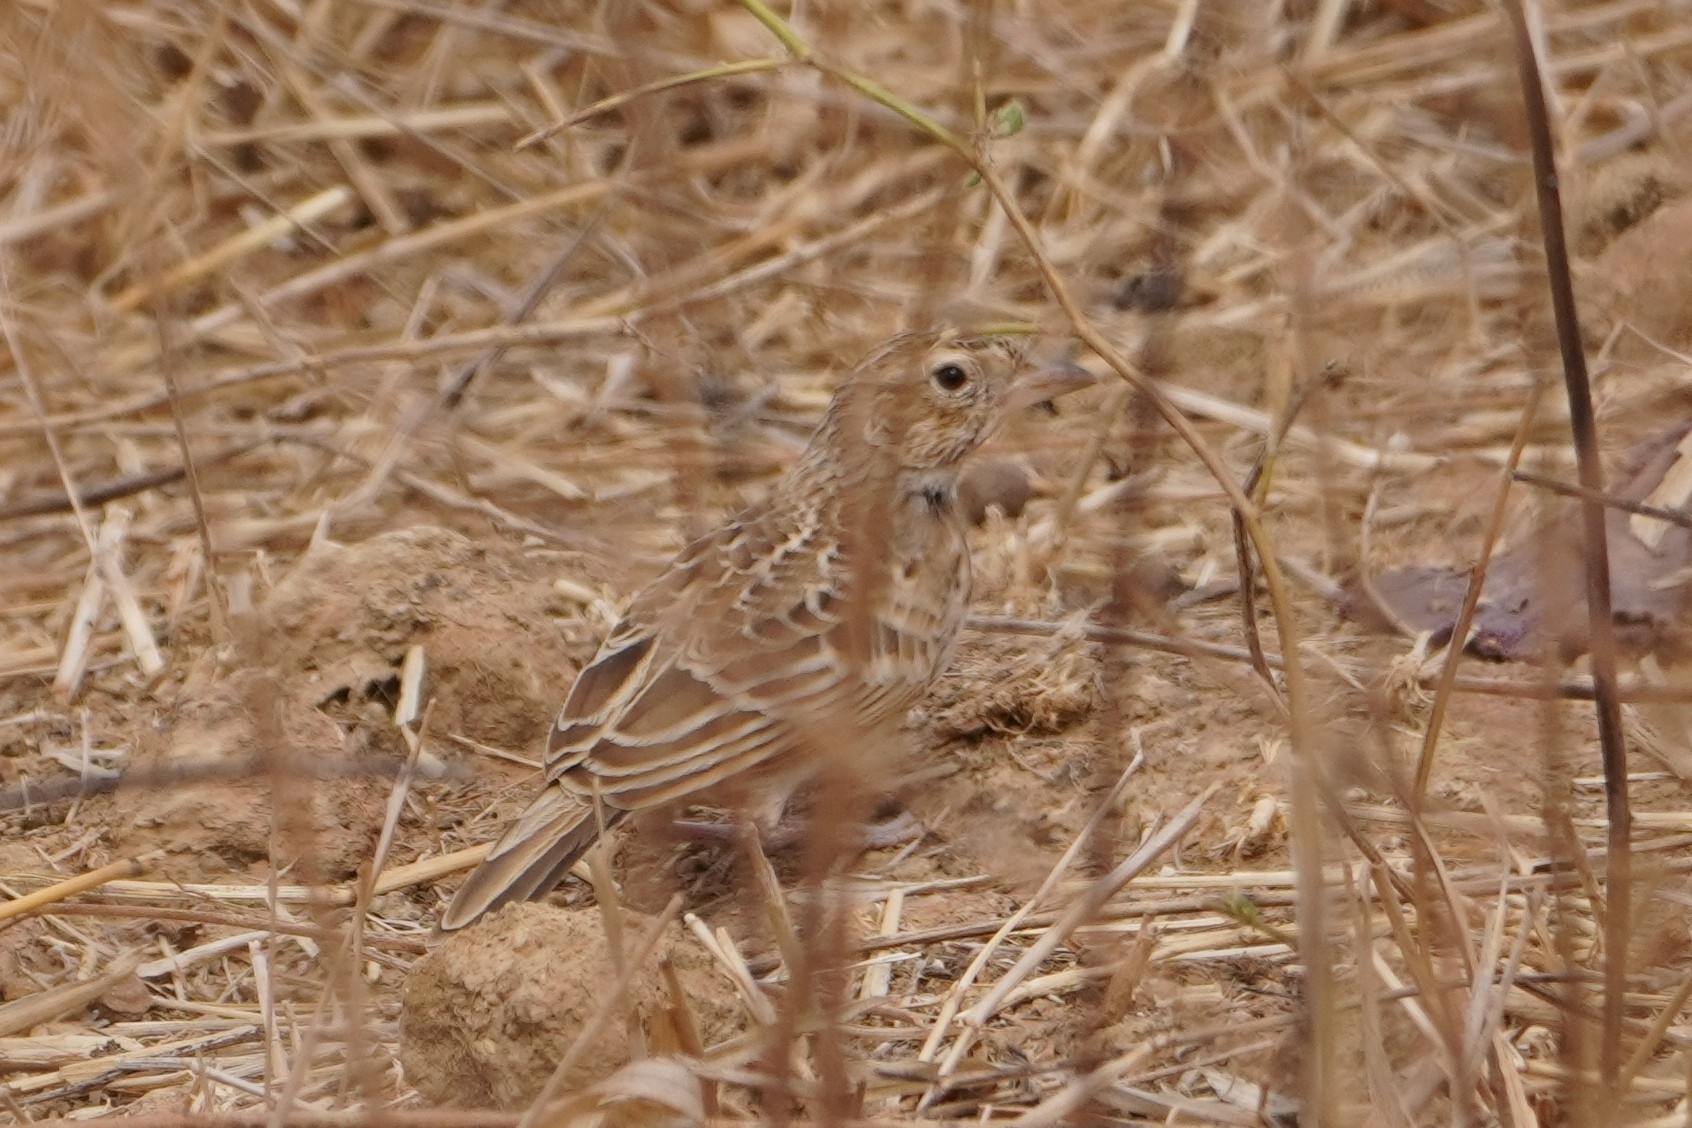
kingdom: Animalia
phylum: Chordata
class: Aves
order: Passeriformes
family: Alaudidae
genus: Eremopterix
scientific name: Eremopterix leucotis
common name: Chestnut-backed sparrow-lark
